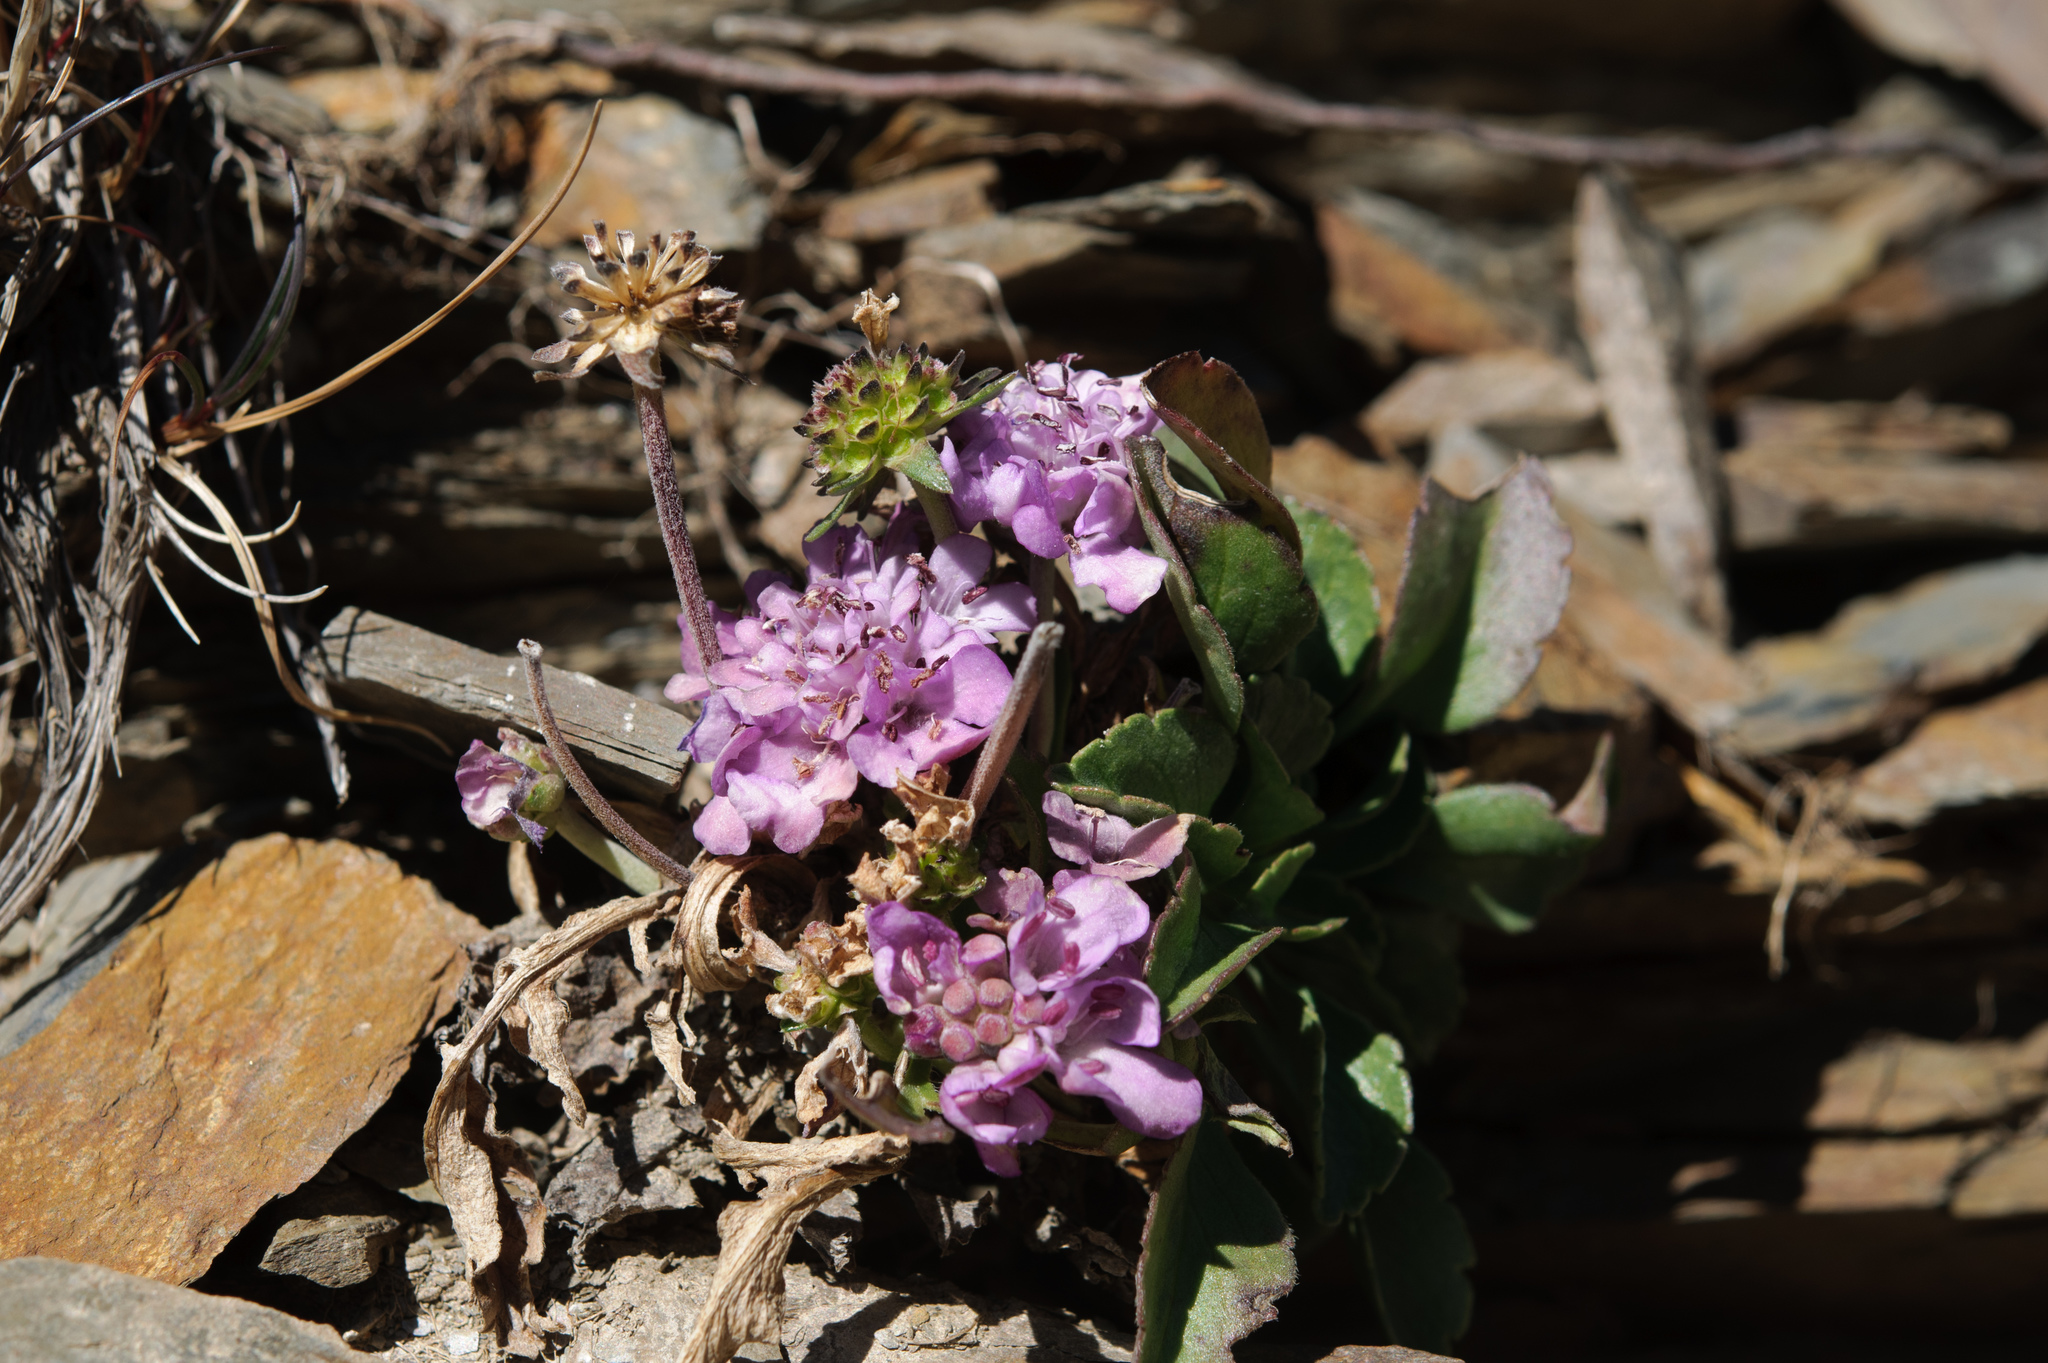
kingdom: Plantae
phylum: Tracheophyta
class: Magnoliopsida
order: Dipsacales
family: Caprifoliaceae
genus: Scabiosa
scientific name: Scabiosa lacerifolia
